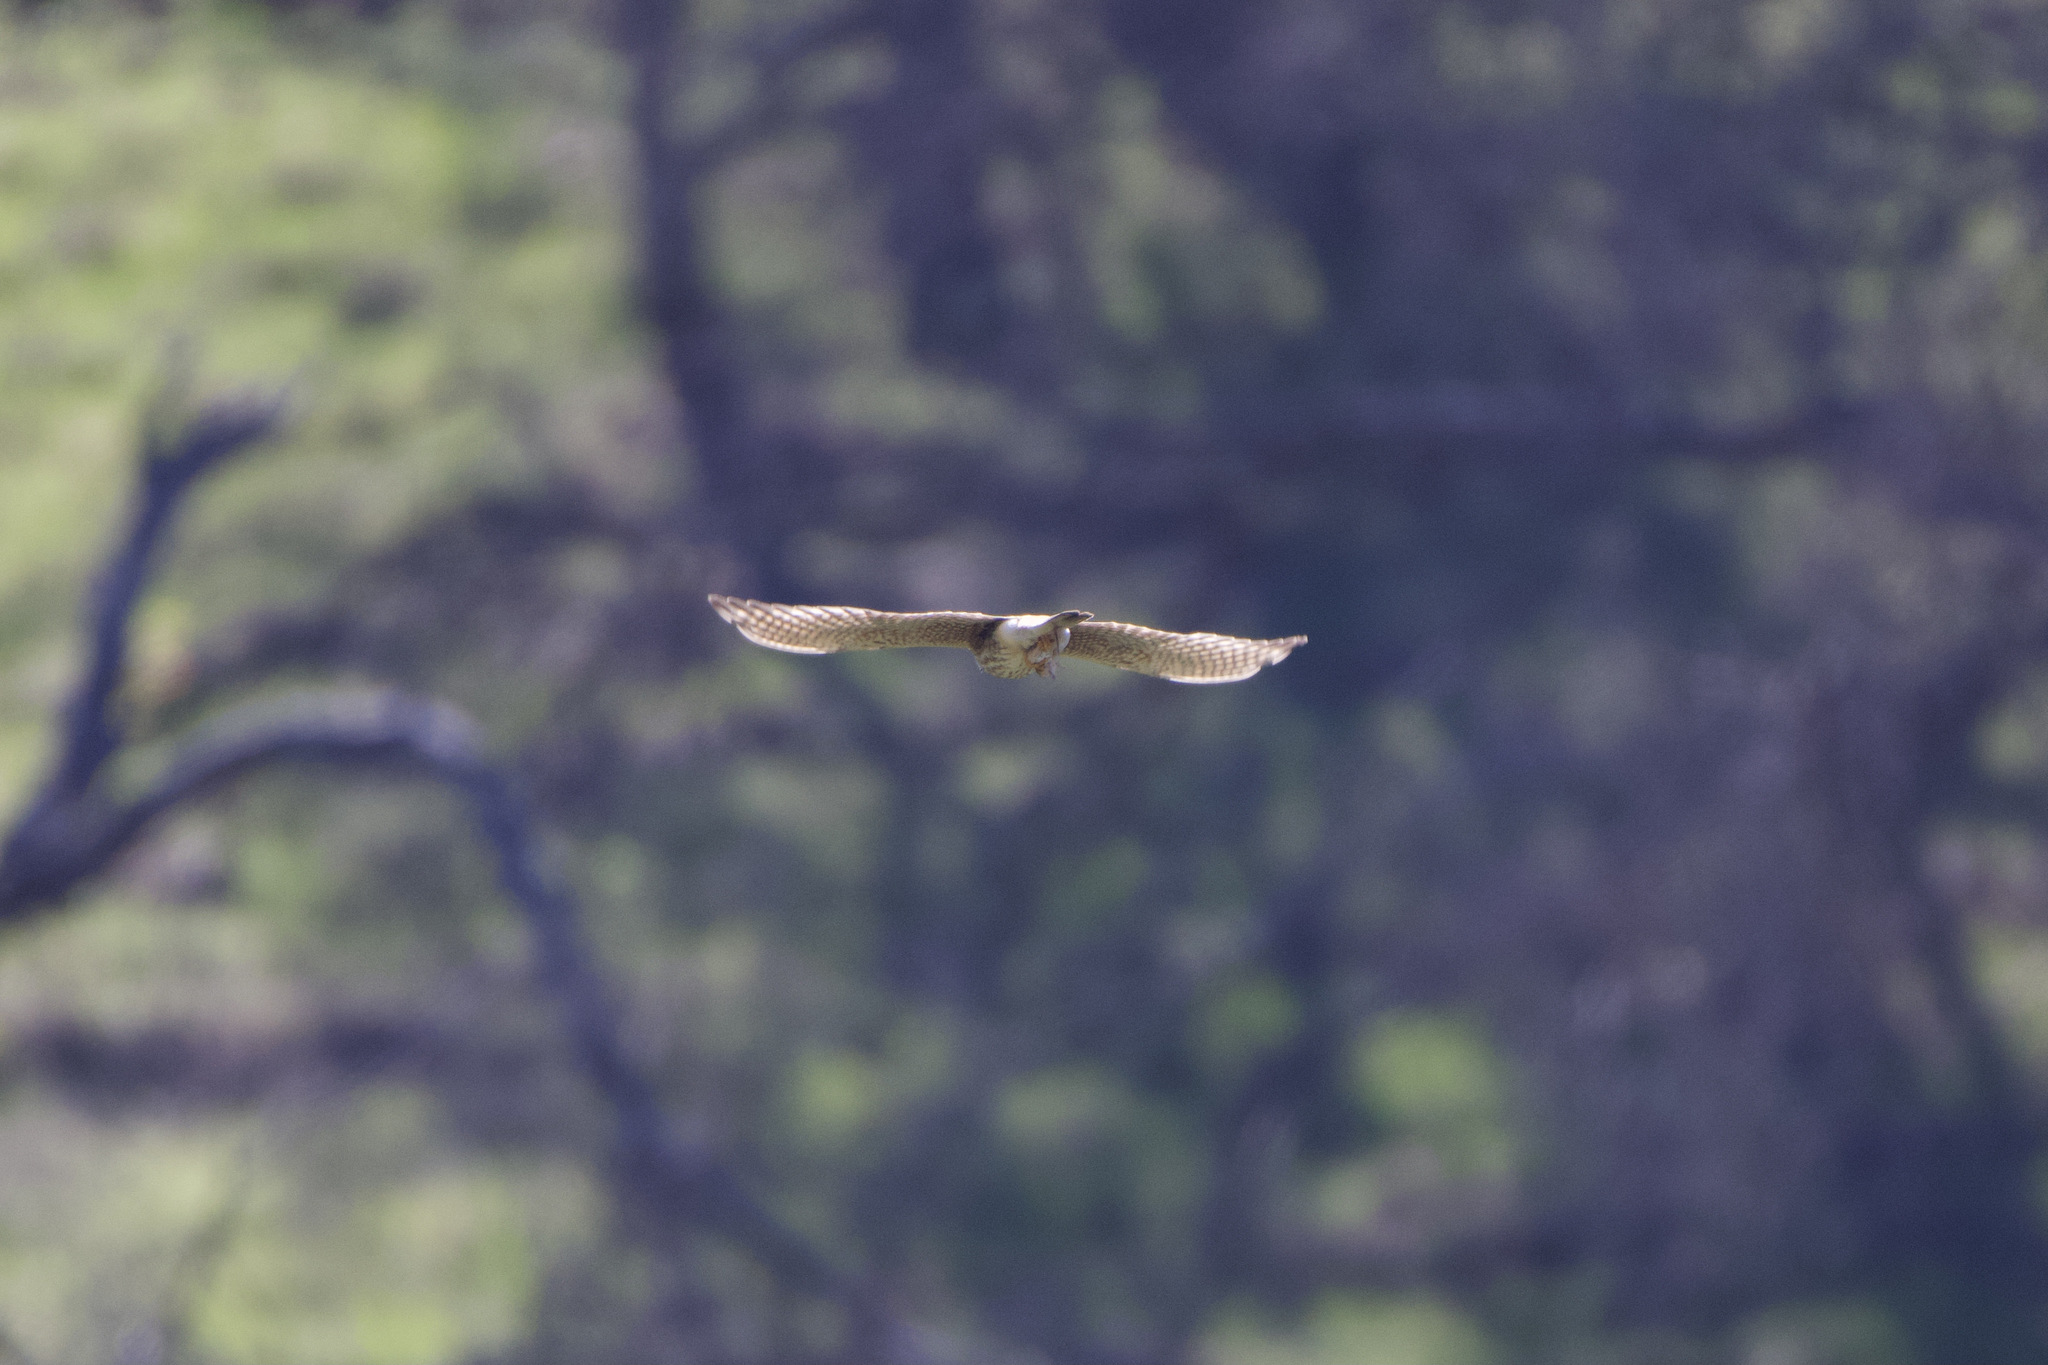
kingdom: Animalia
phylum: Chordata
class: Aves
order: Falconiformes
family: Falconidae
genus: Falco
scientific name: Falco sparverius
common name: American kestrel
